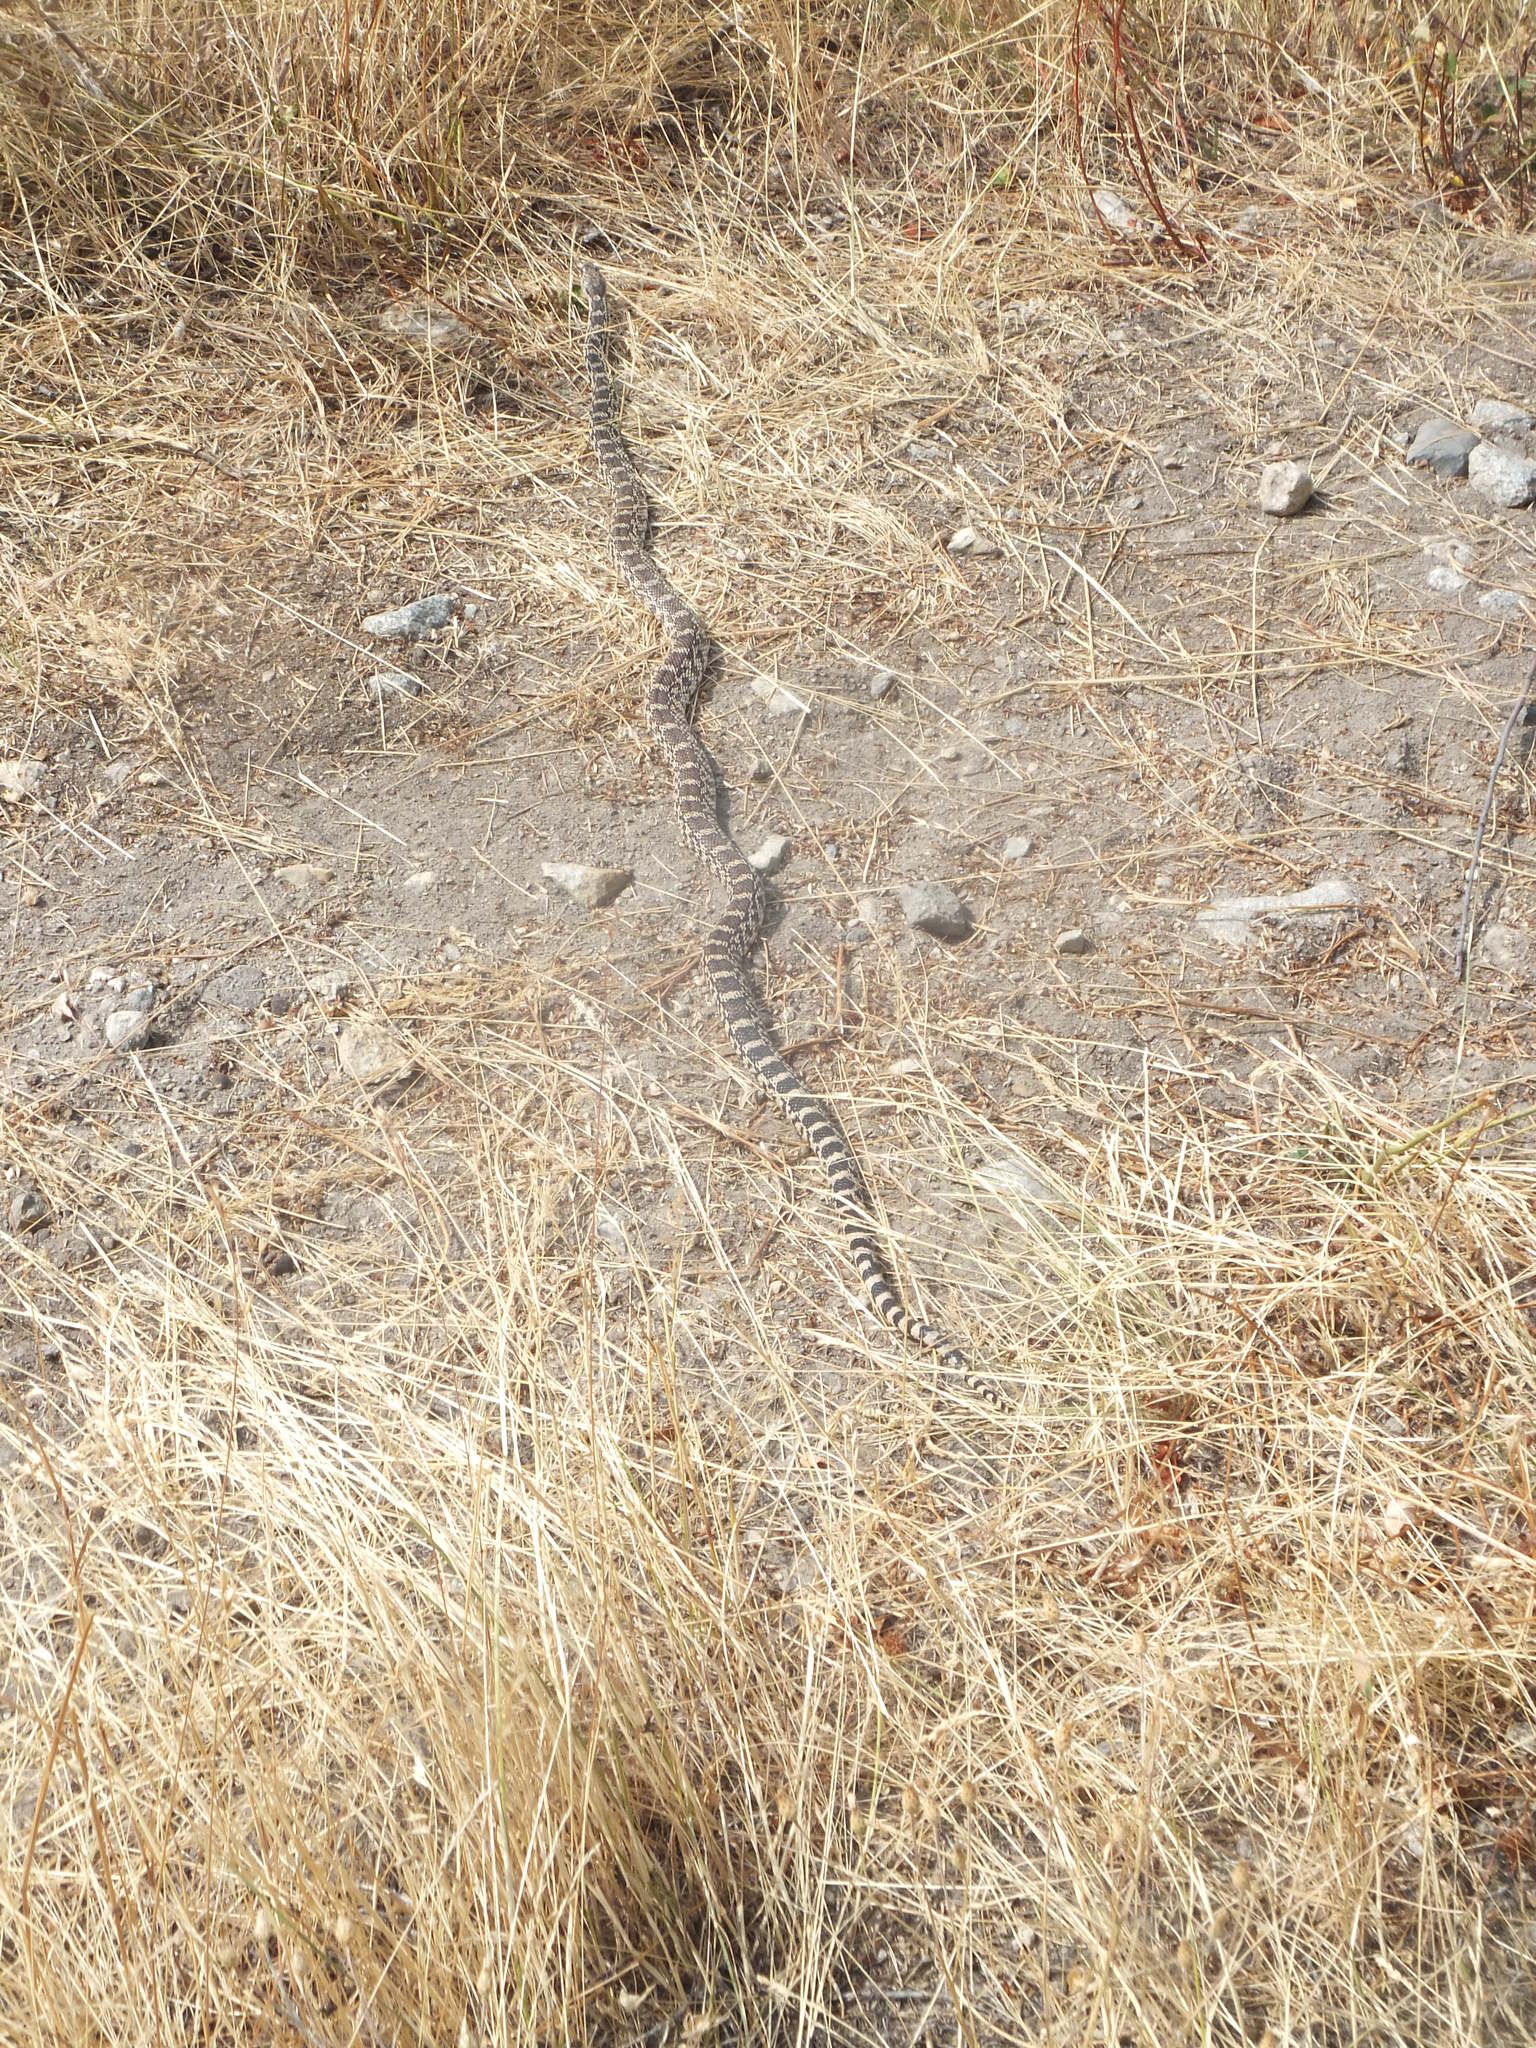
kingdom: Animalia
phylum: Chordata
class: Squamata
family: Colubridae
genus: Pituophis
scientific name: Pituophis catenifer
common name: Gopher snake
